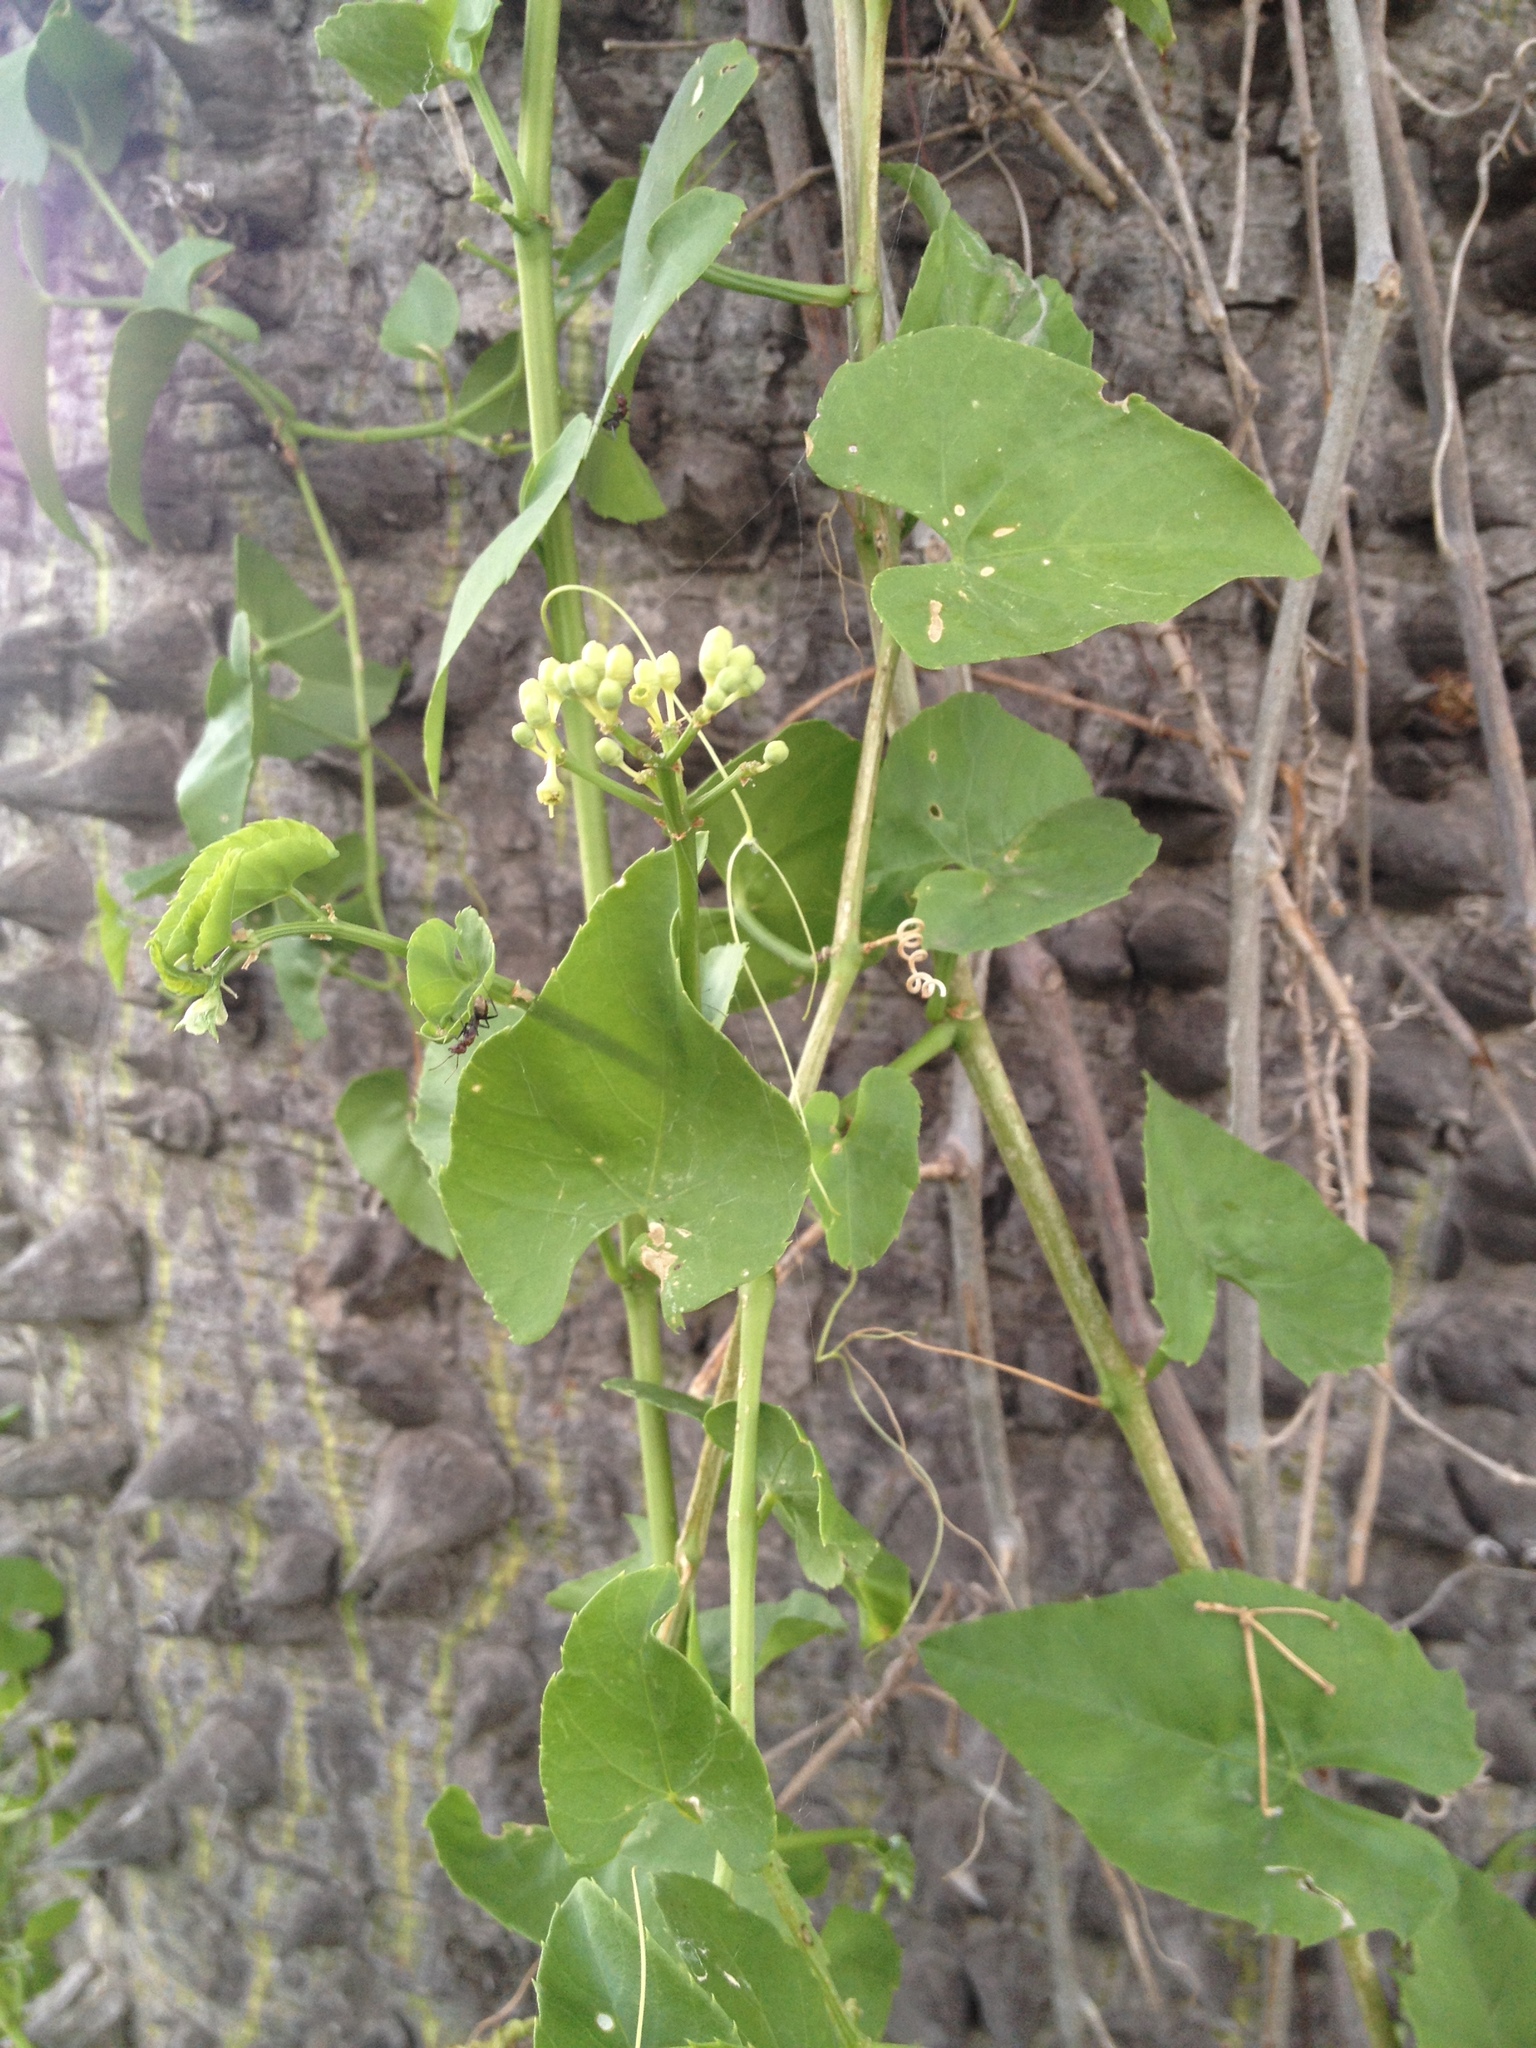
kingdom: Plantae
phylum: Tracheophyta
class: Magnoliopsida
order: Vitales
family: Vitaceae
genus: Cissus
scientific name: Cissus verticillata
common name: Princess vine
